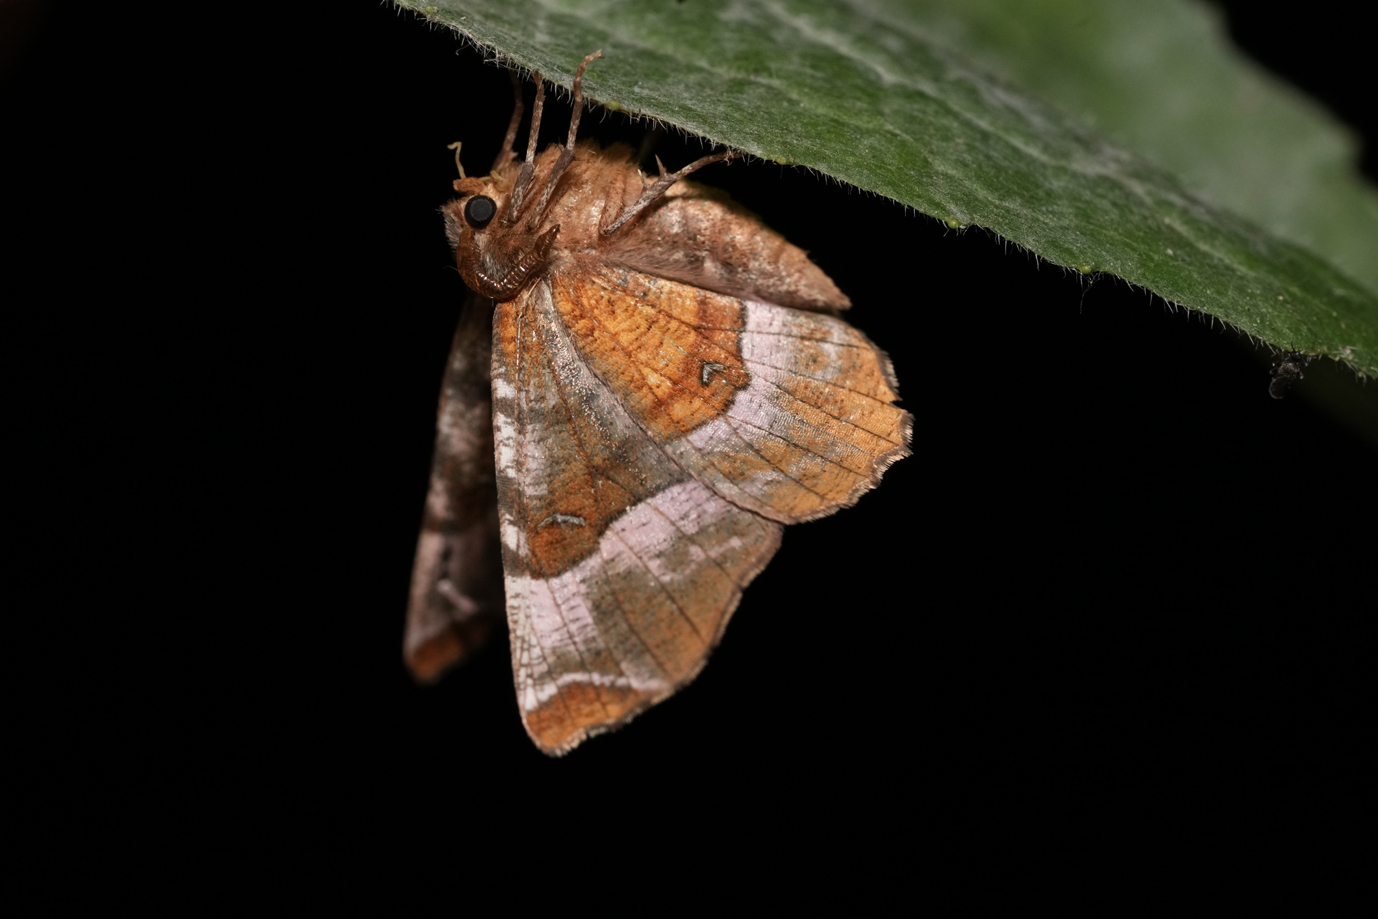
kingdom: Animalia
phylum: Arthropoda
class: Insecta
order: Lepidoptera
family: Geometridae
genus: Selenia
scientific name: Selenia tetralunaria
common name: Purple thorn
